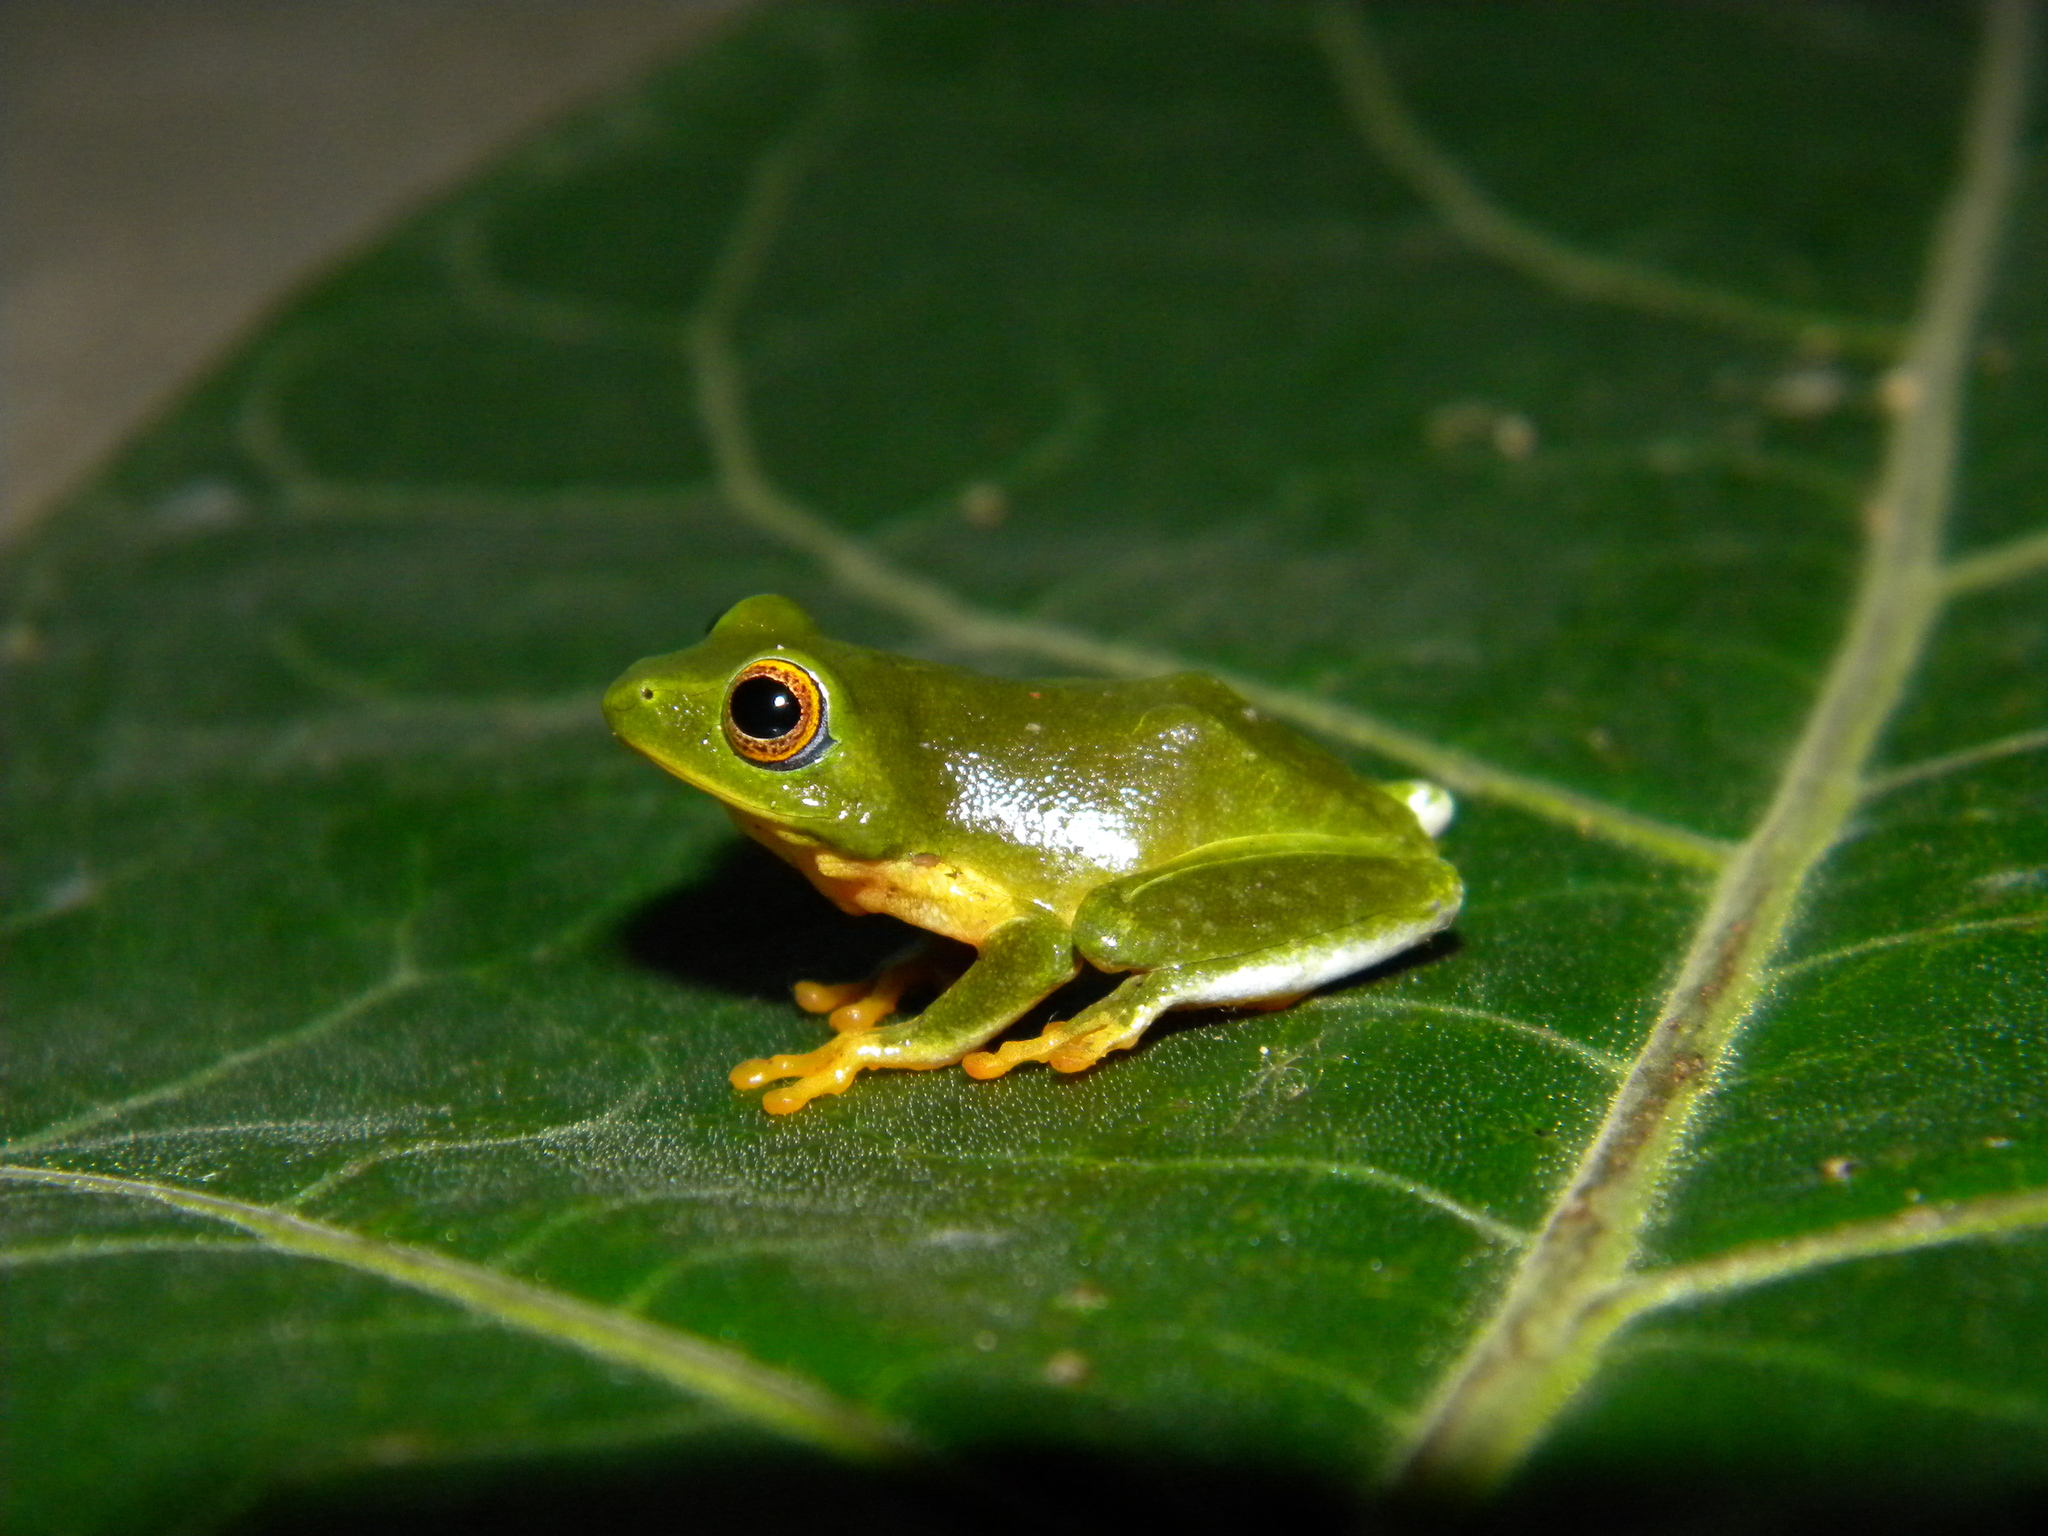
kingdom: Animalia
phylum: Chordata
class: Amphibia
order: Anura
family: Rhacophoridae
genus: Raorchestes
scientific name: Raorchestes jayarami
